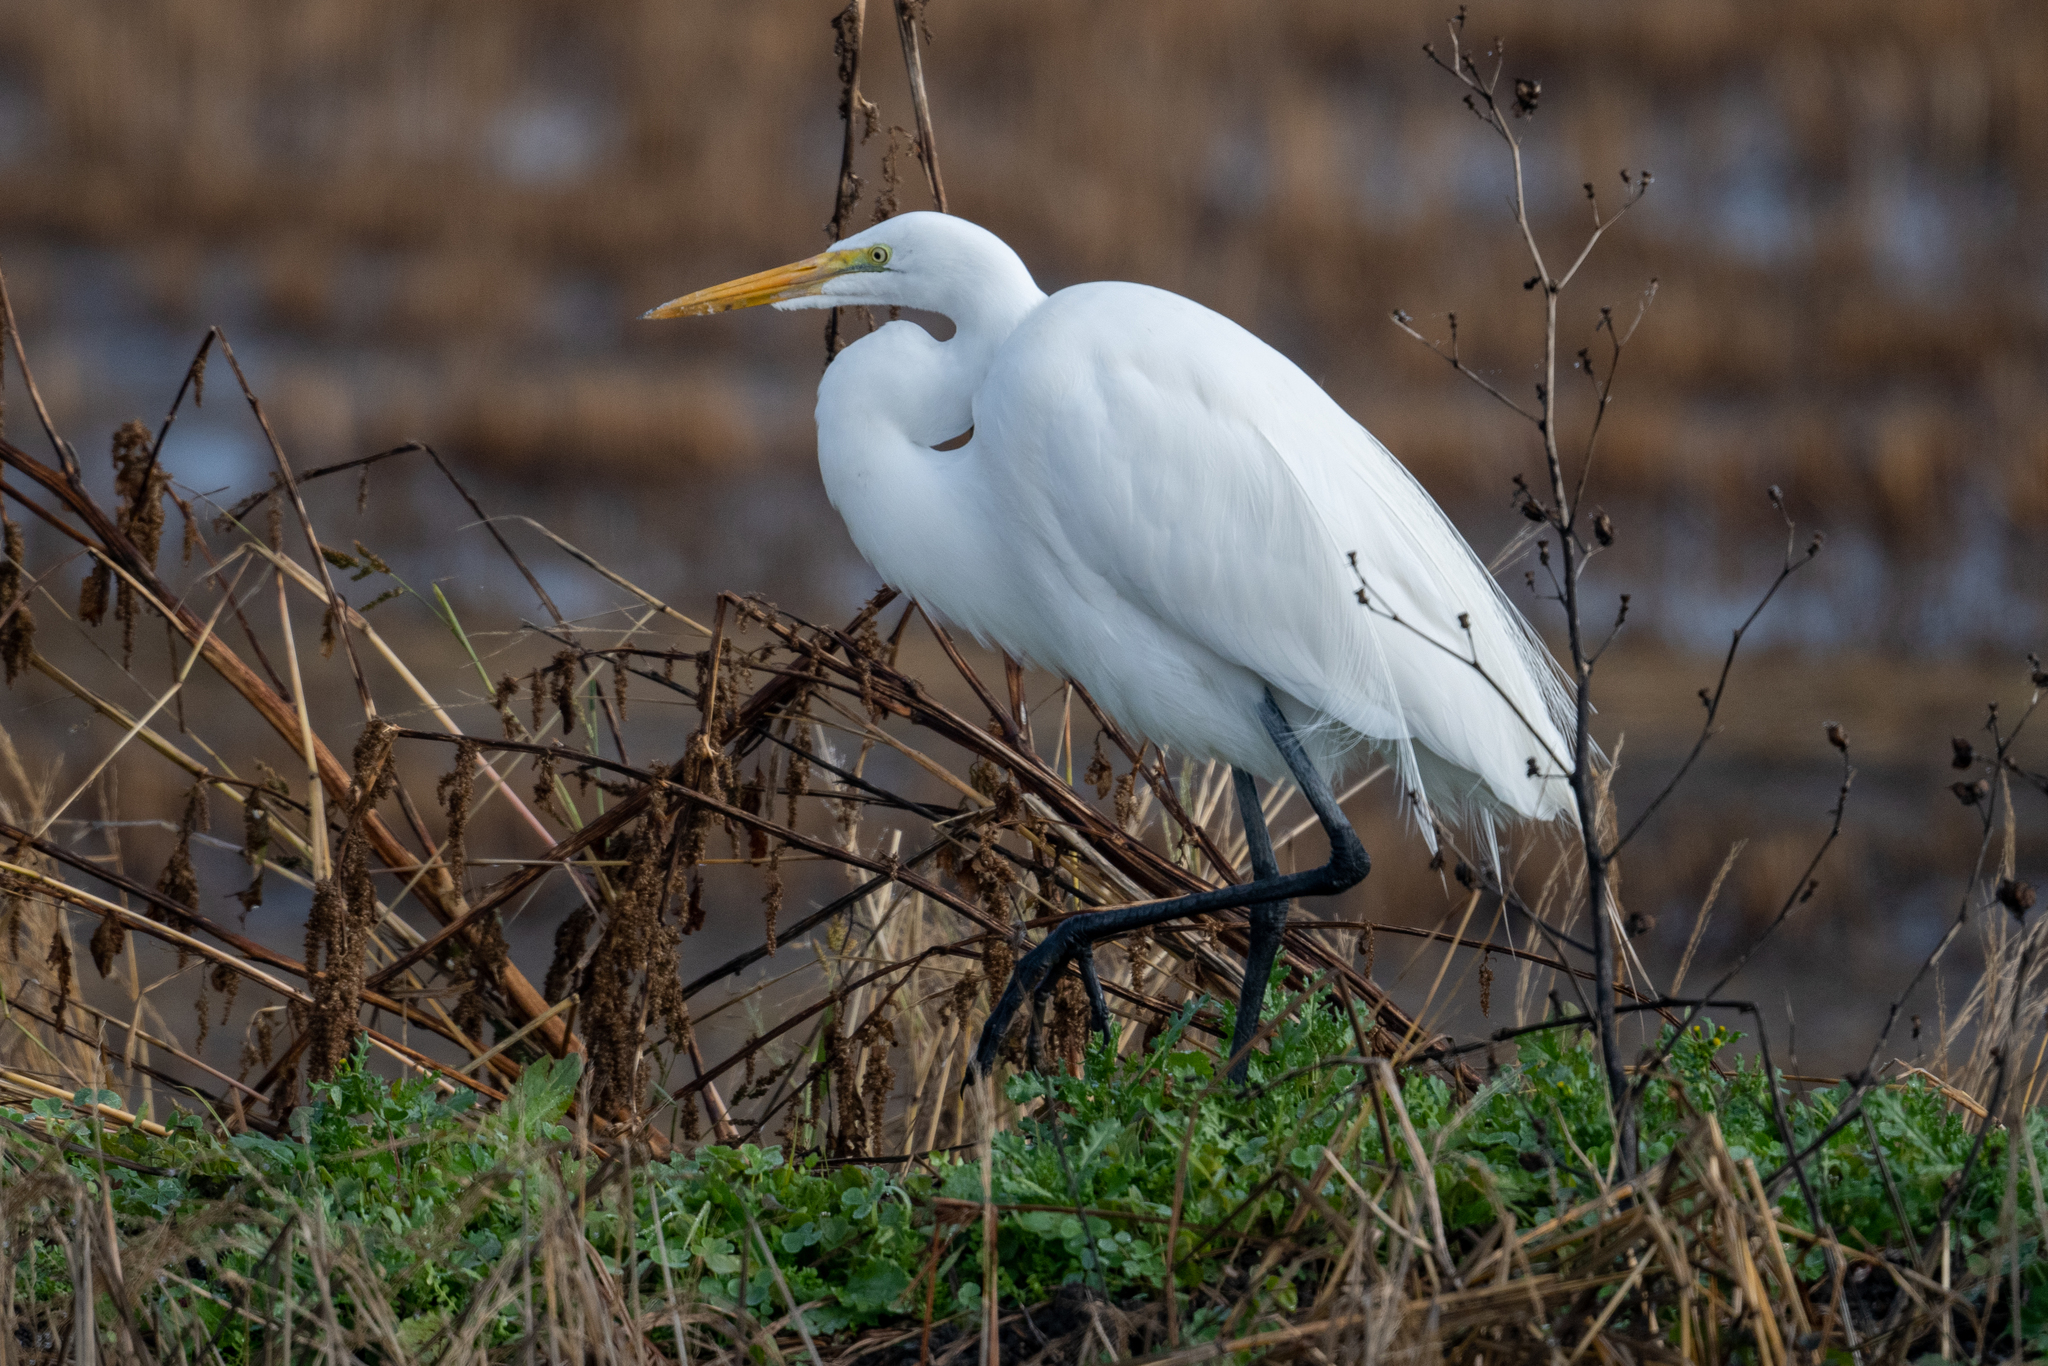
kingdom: Animalia
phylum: Chordata
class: Aves
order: Pelecaniformes
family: Ardeidae
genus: Ardea
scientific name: Ardea alba
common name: Great egret
